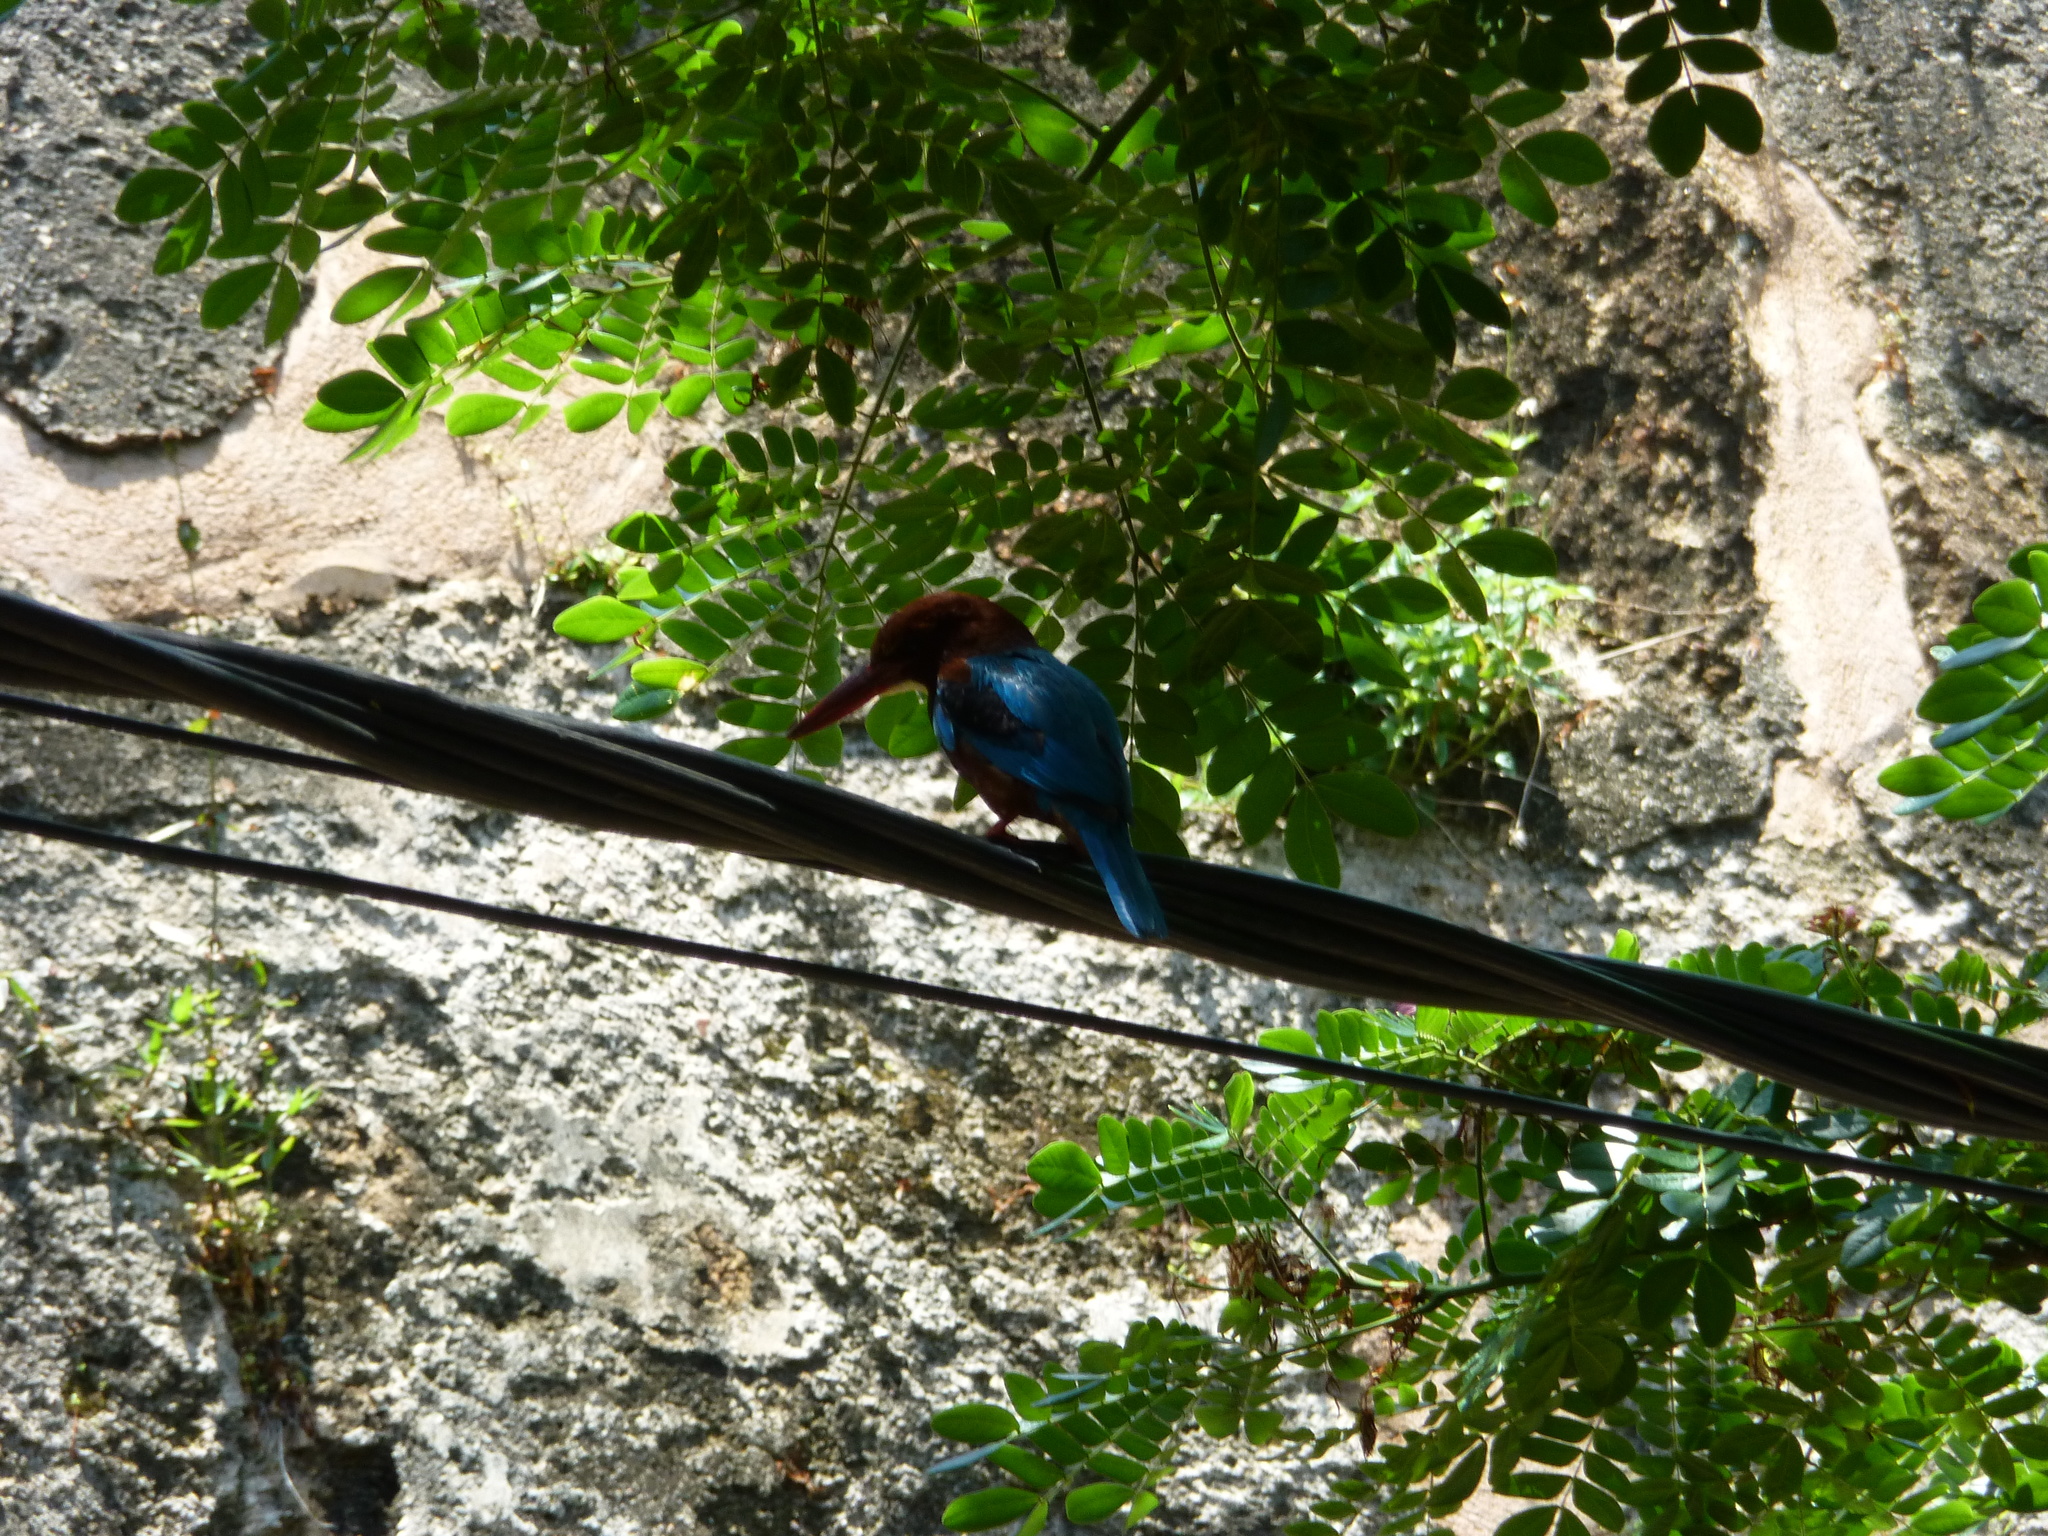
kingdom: Animalia
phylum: Chordata
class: Aves
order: Coraciiformes
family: Alcedinidae
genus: Halcyon
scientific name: Halcyon smyrnensis
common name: White-throated kingfisher
